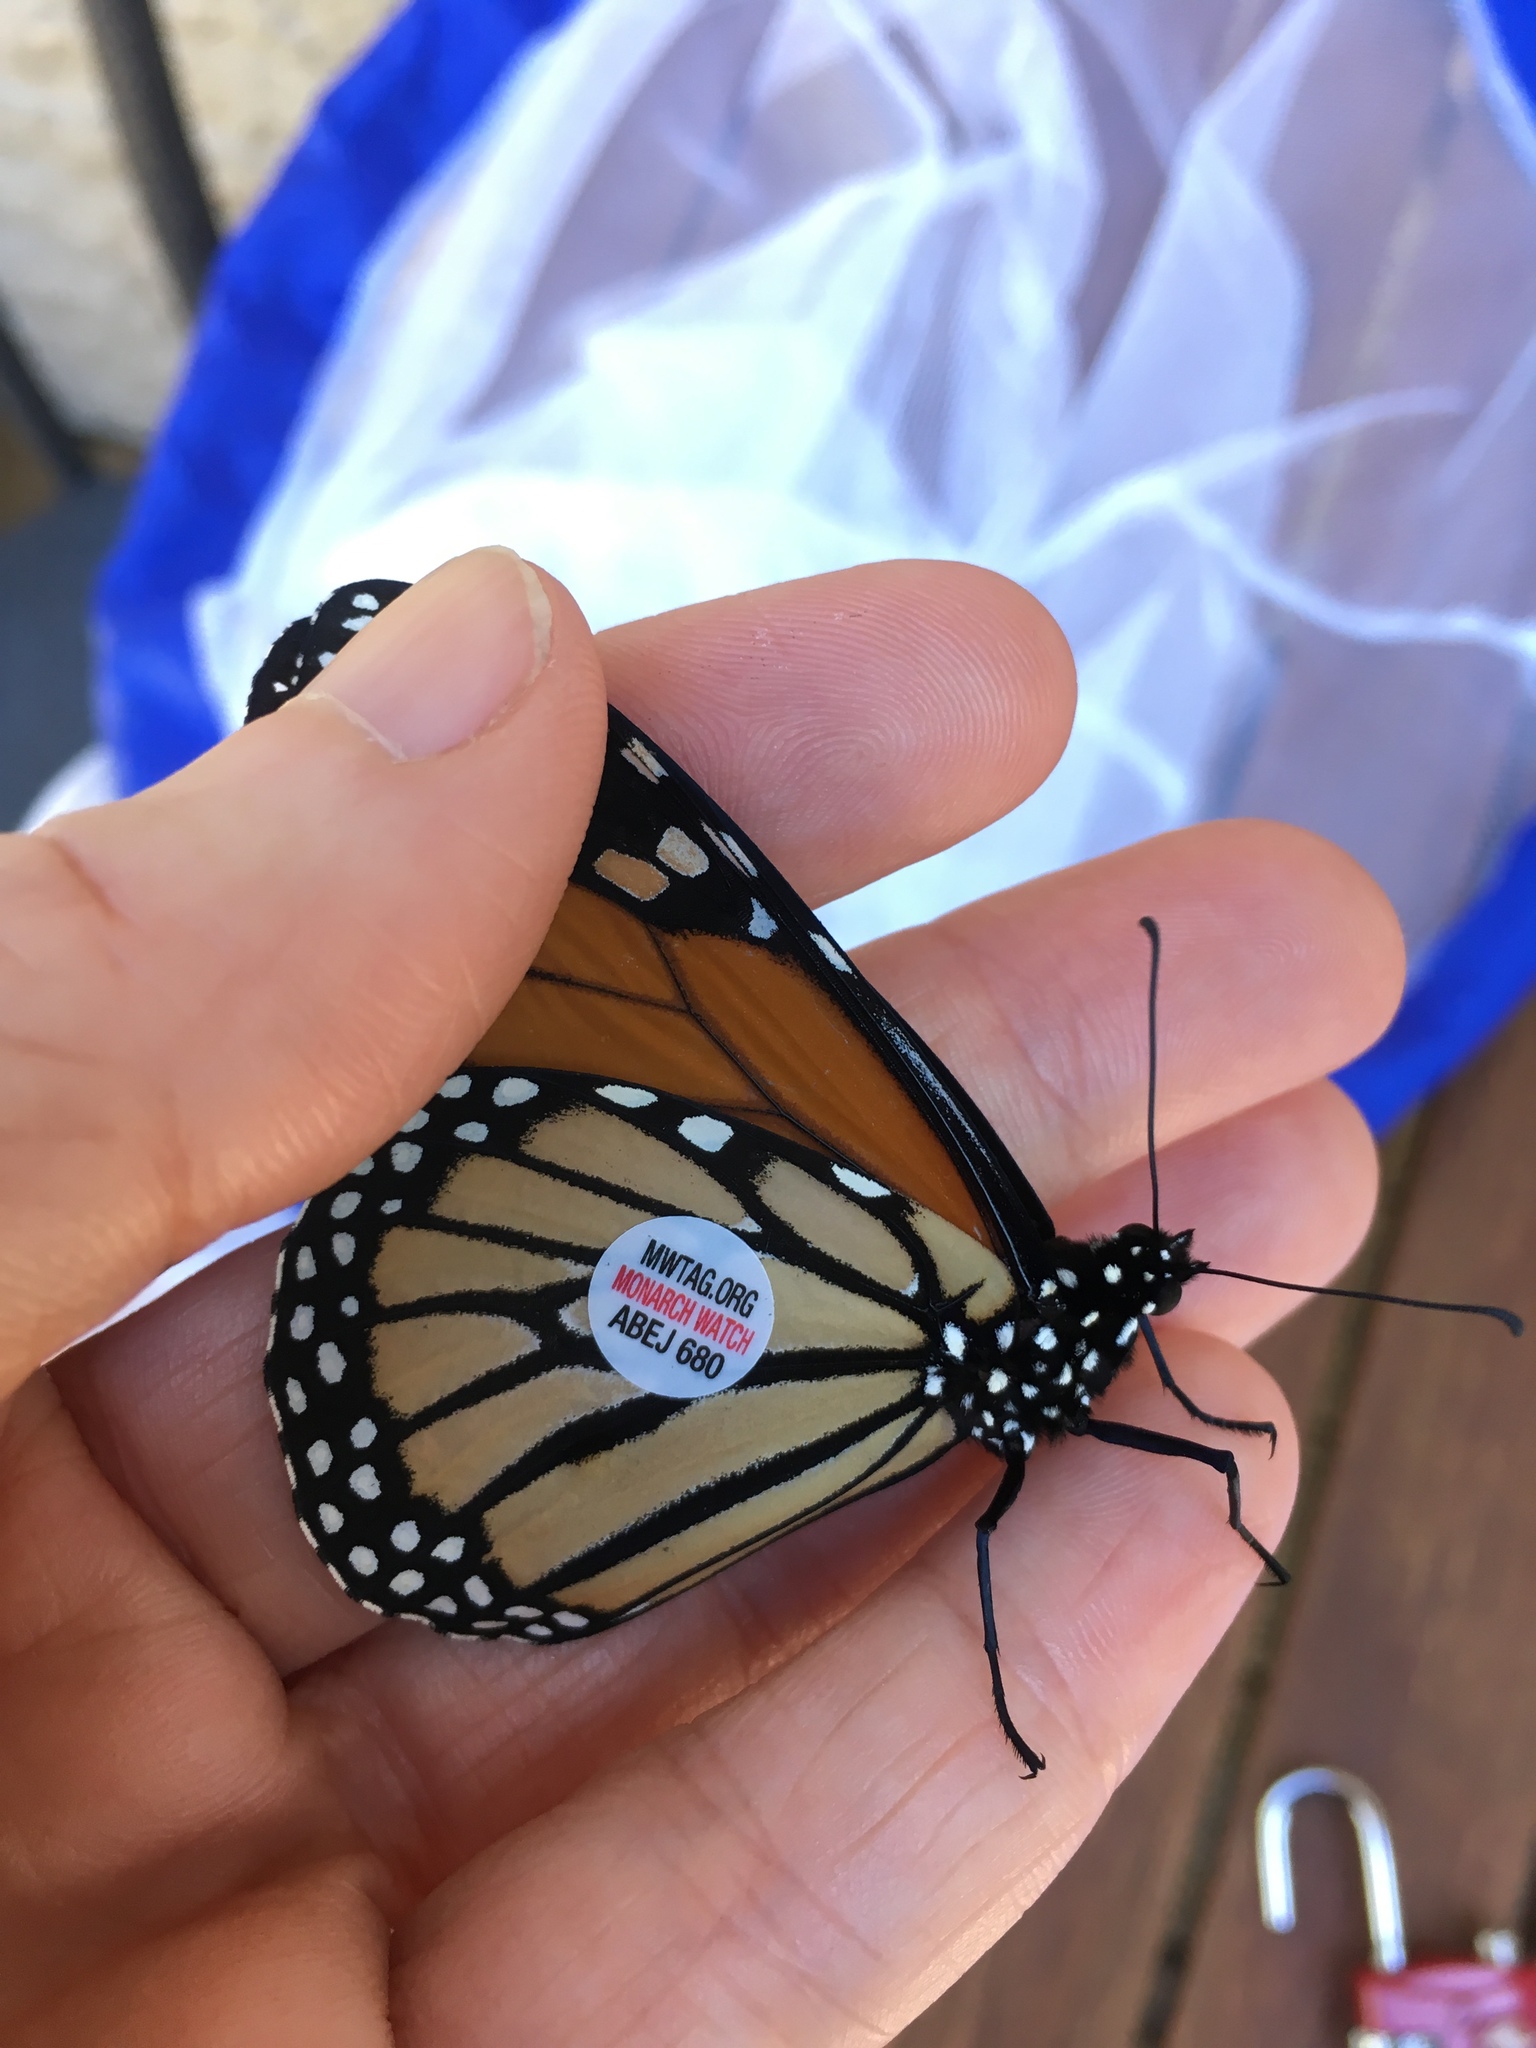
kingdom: Animalia
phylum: Arthropoda
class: Insecta
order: Lepidoptera
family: Nymphalidae
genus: Danaus
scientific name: Danaus plexippus
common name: Monarch
